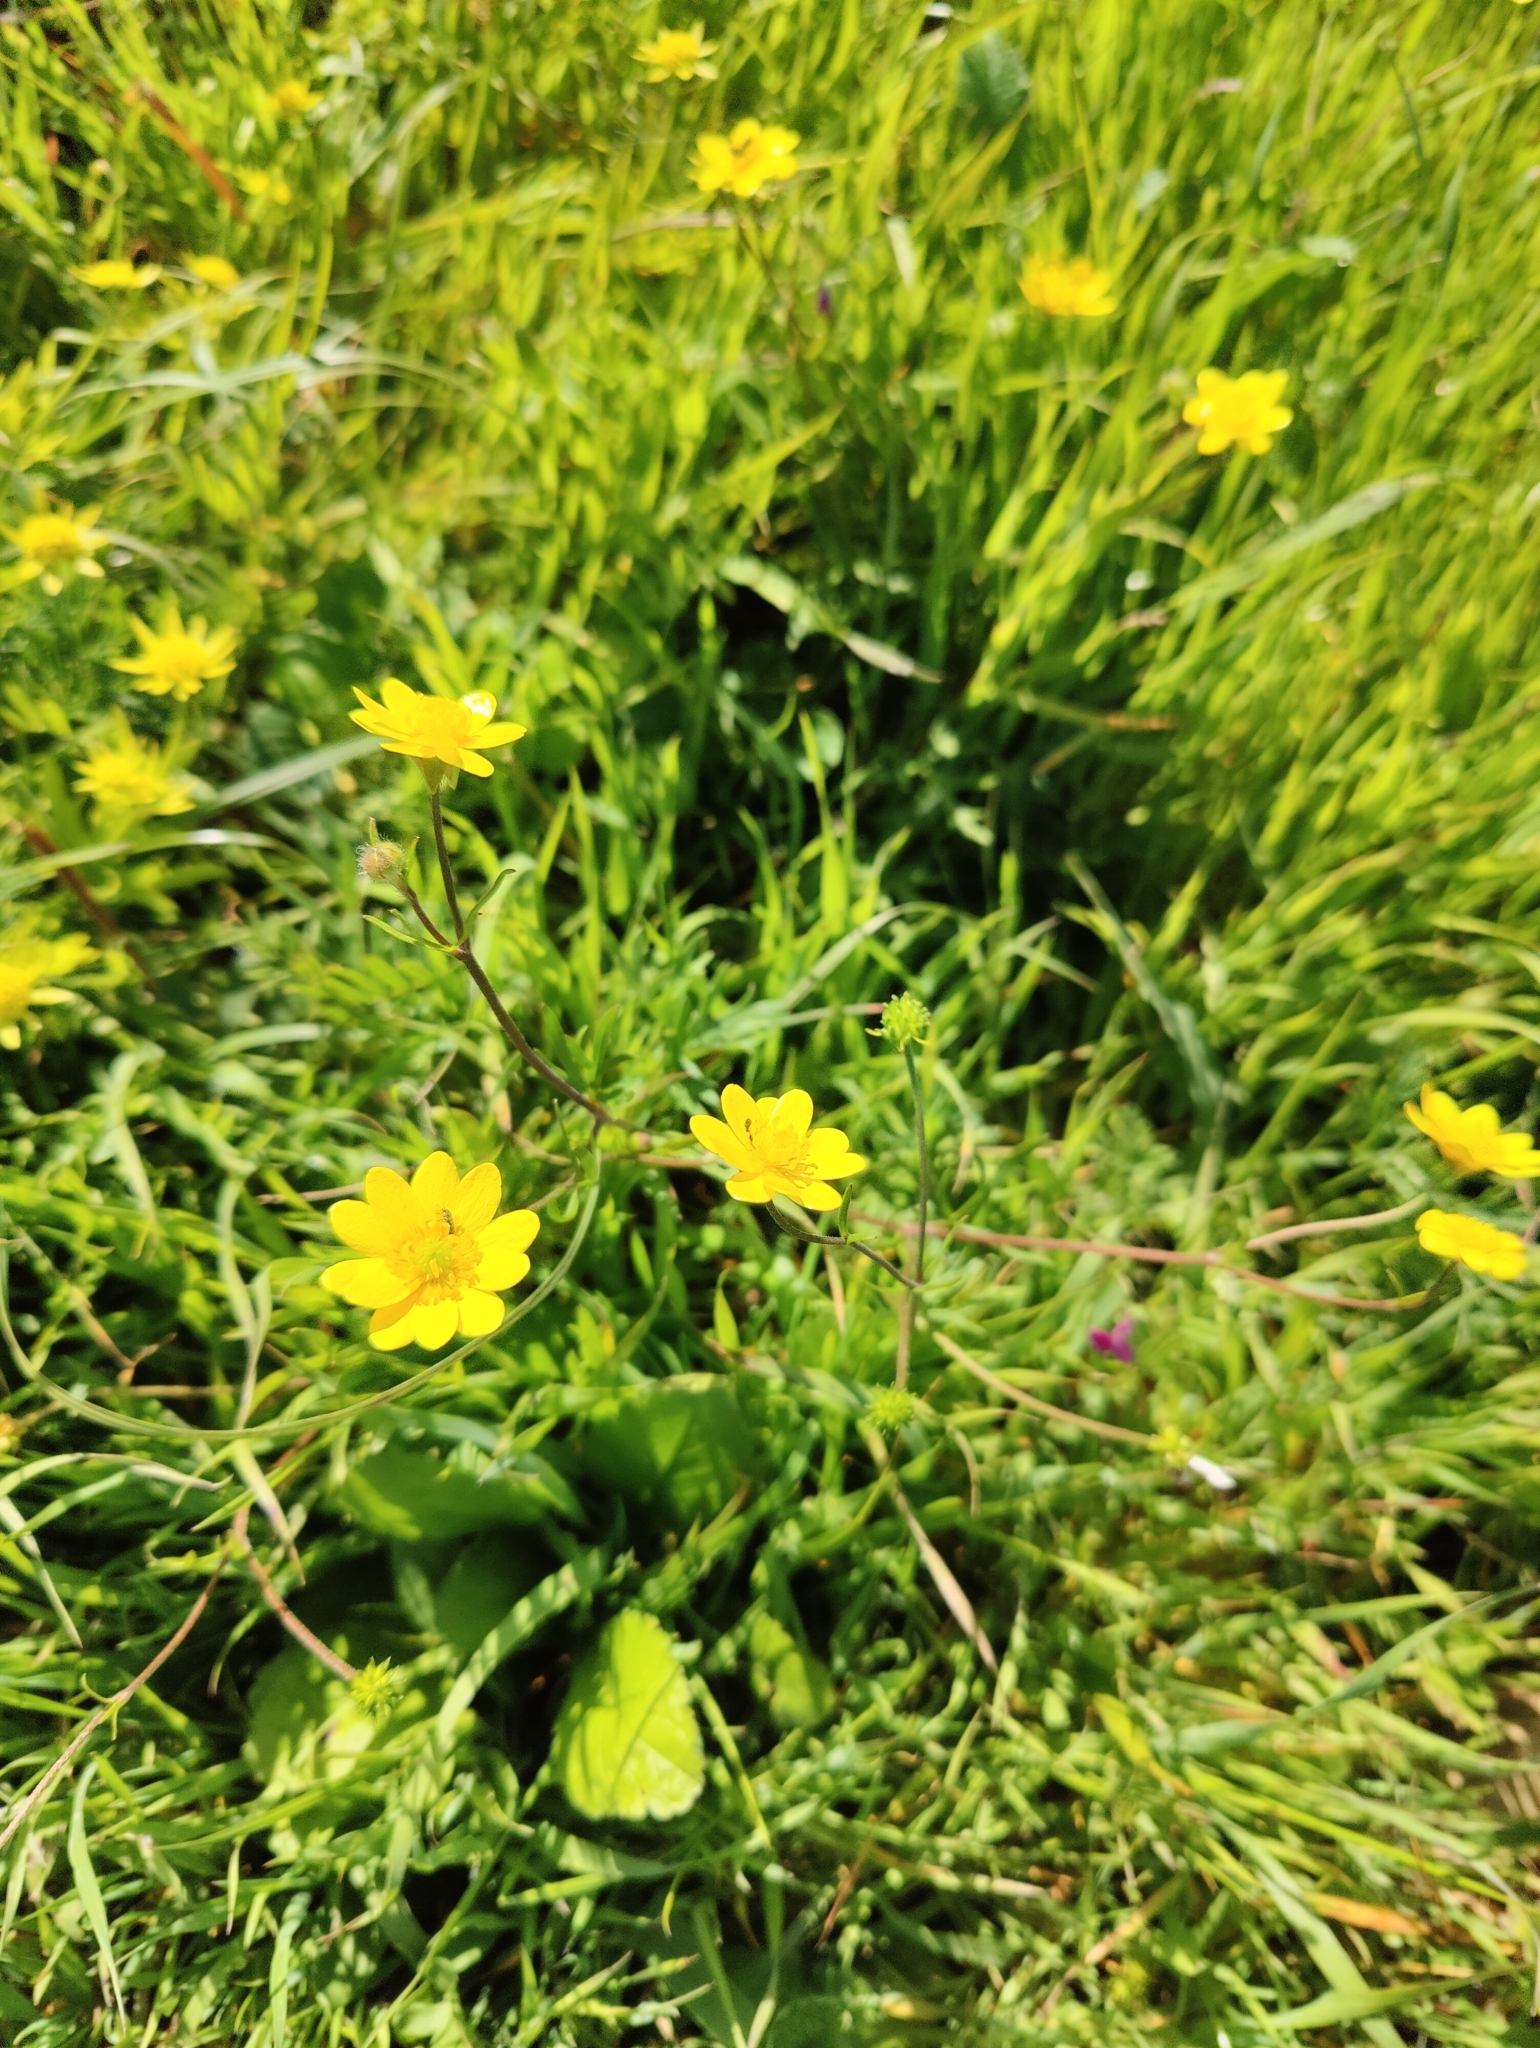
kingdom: Plantae
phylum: Tracheophyta
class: Magnoliopsida
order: Ranunculales
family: Ranunculaceae
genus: Ranunculus
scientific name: Ranunculus californicus
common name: California buttercup
